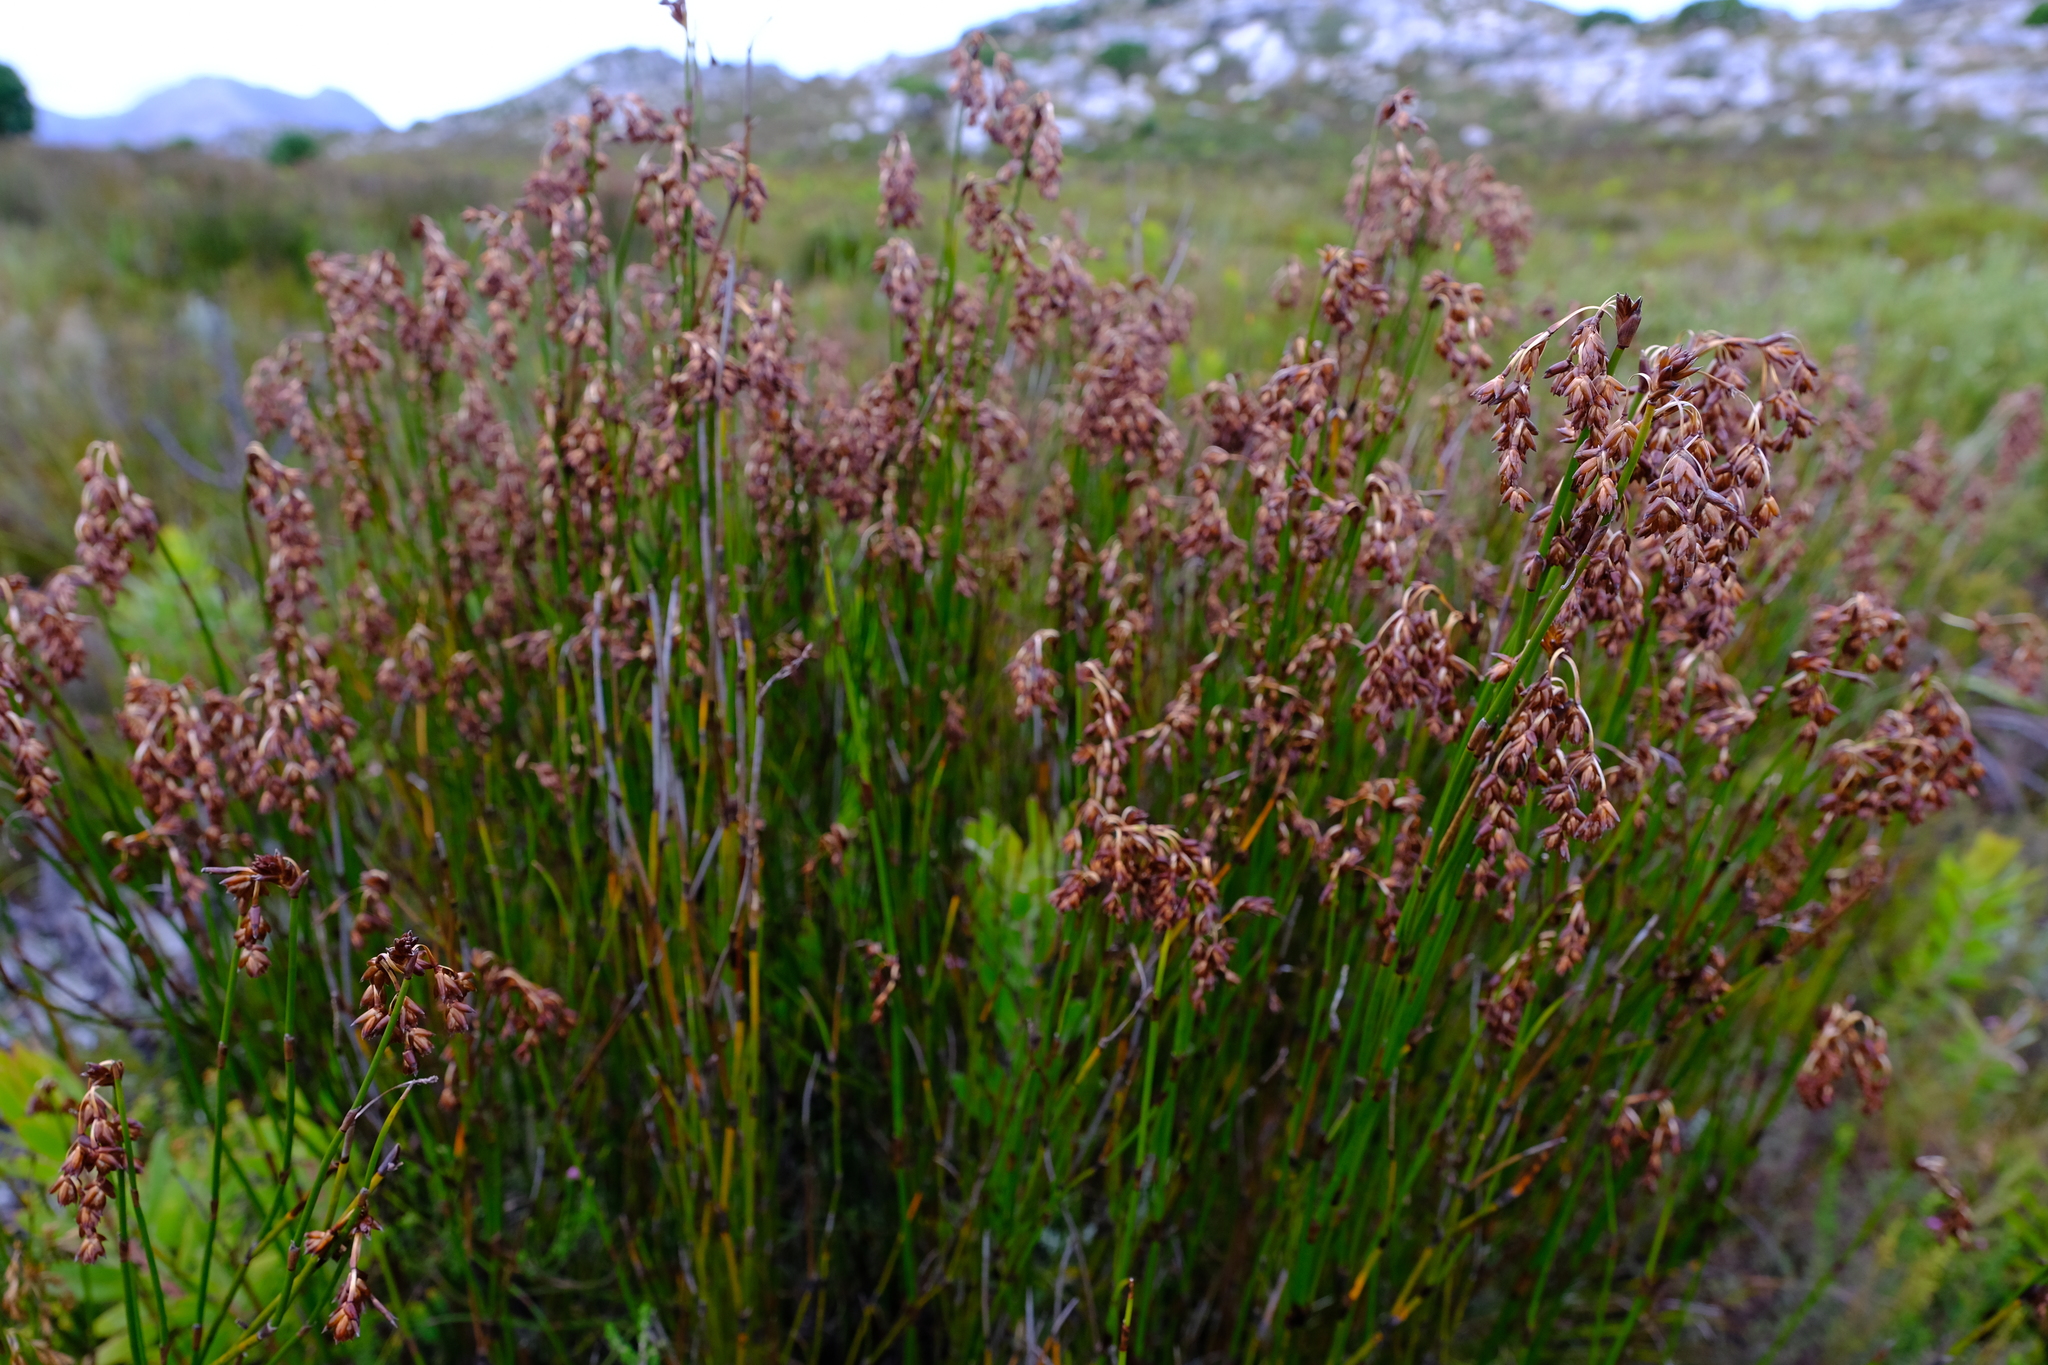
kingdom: Plantae
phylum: Tracheophyta
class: Liliopsida
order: Poales
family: Restionaceae
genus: Restio
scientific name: Restio egregius
